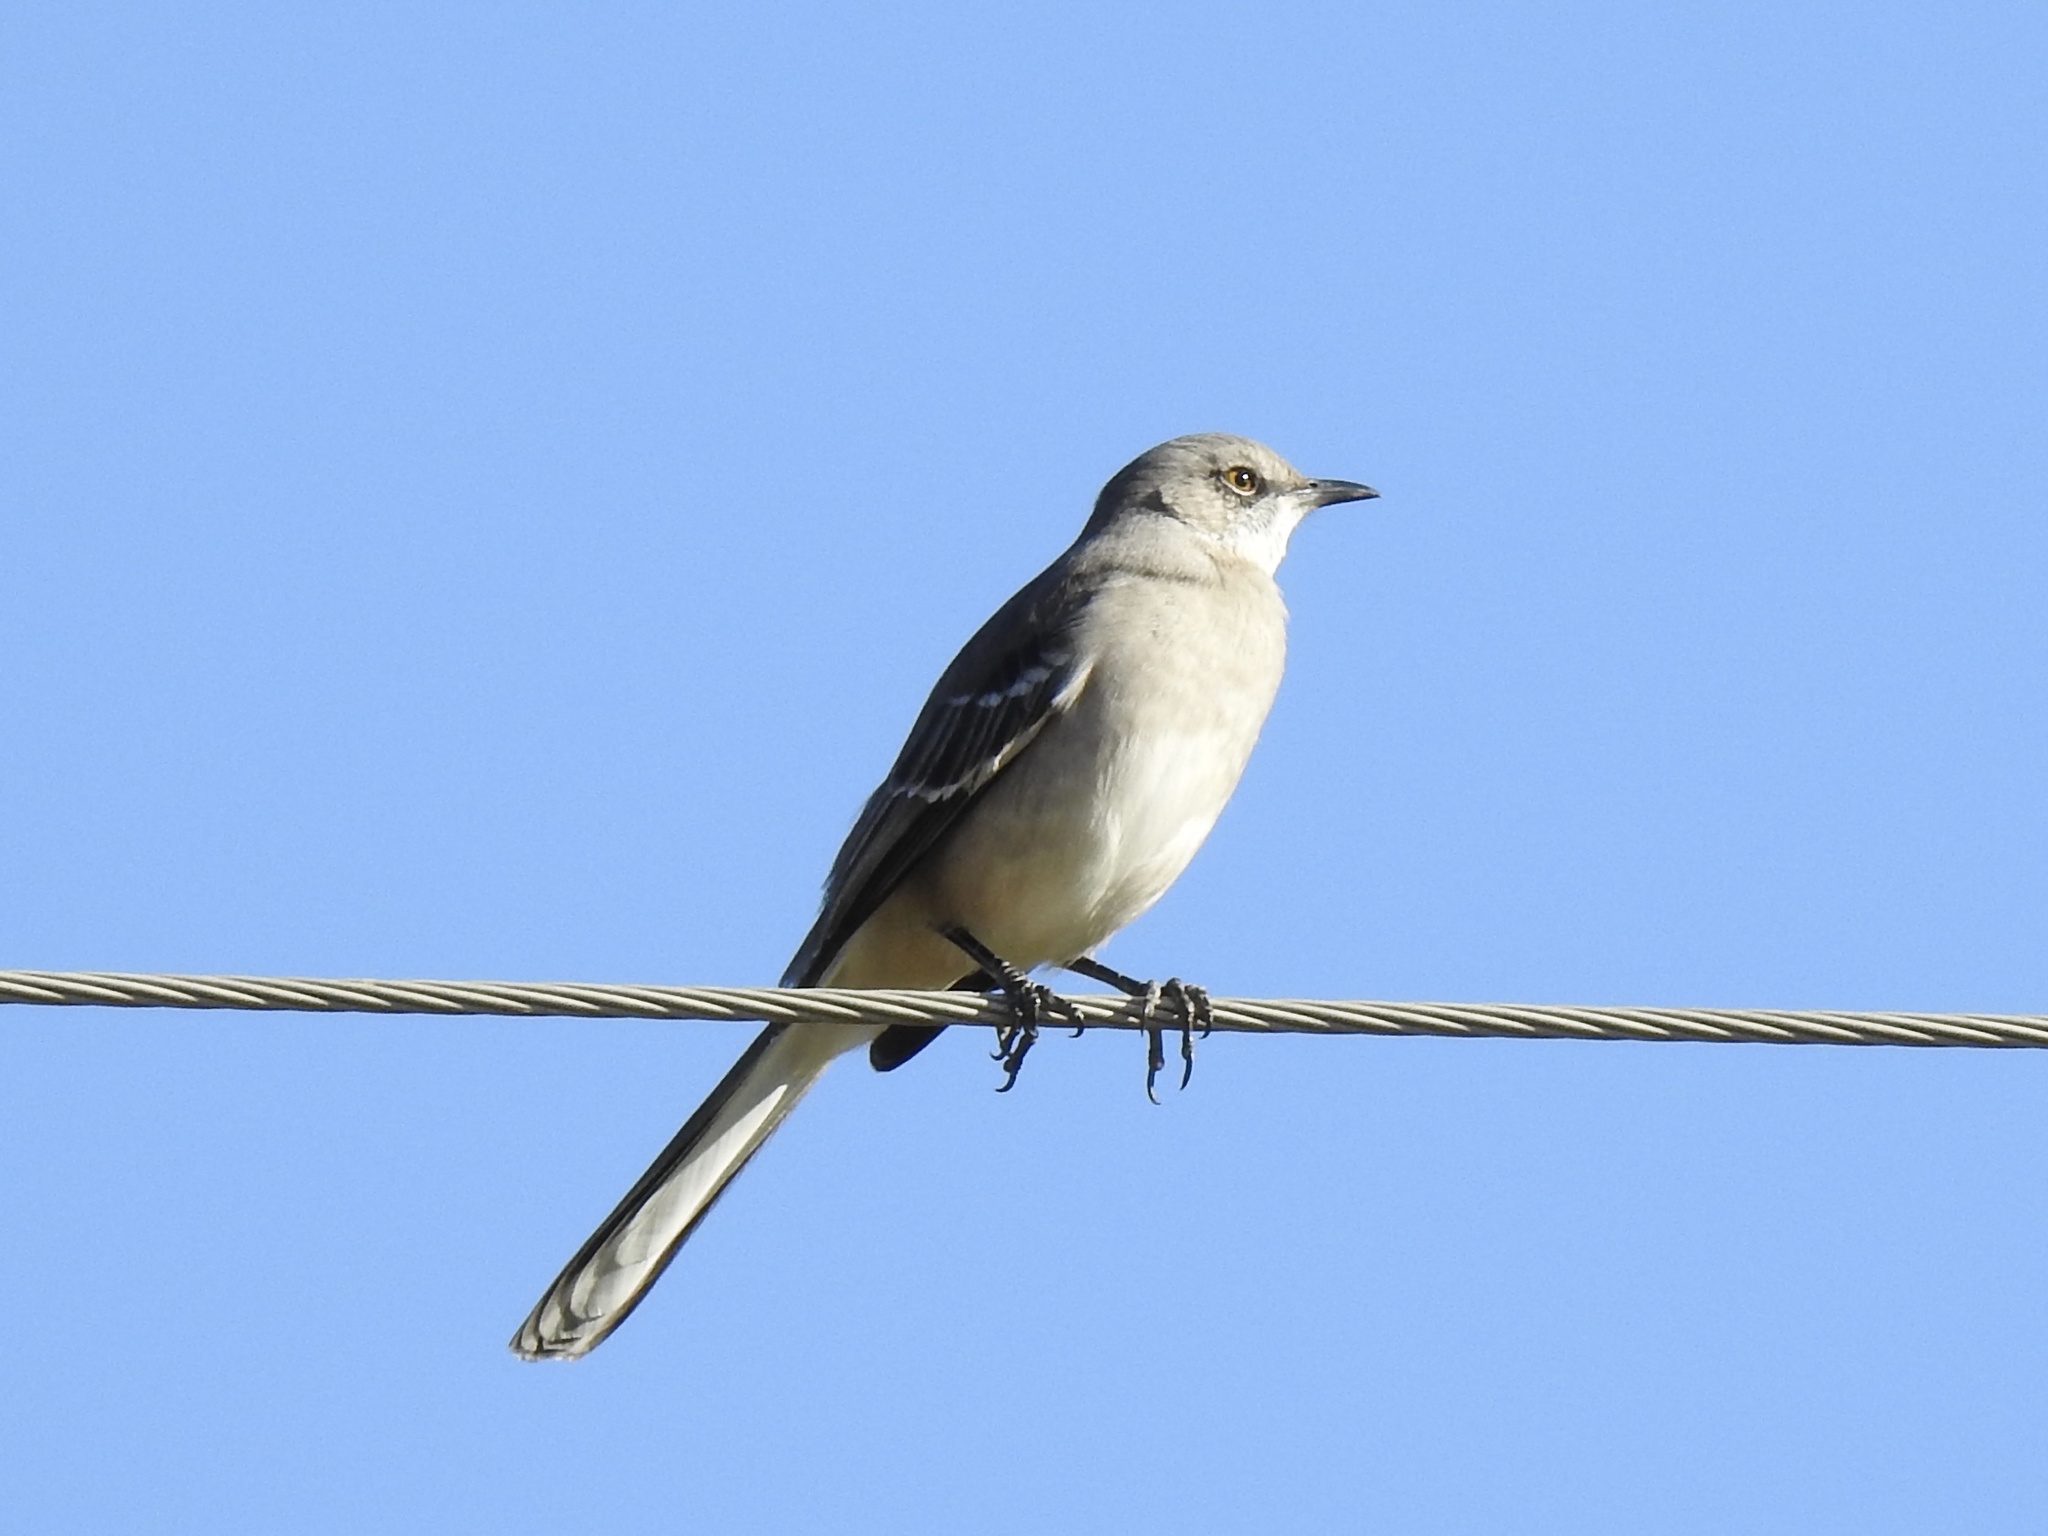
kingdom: Animalia
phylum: Chordata
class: Aves
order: Passeriformes
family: Mimidae
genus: Mimus
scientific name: Mimus polyglottos
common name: Northern mockingbird
